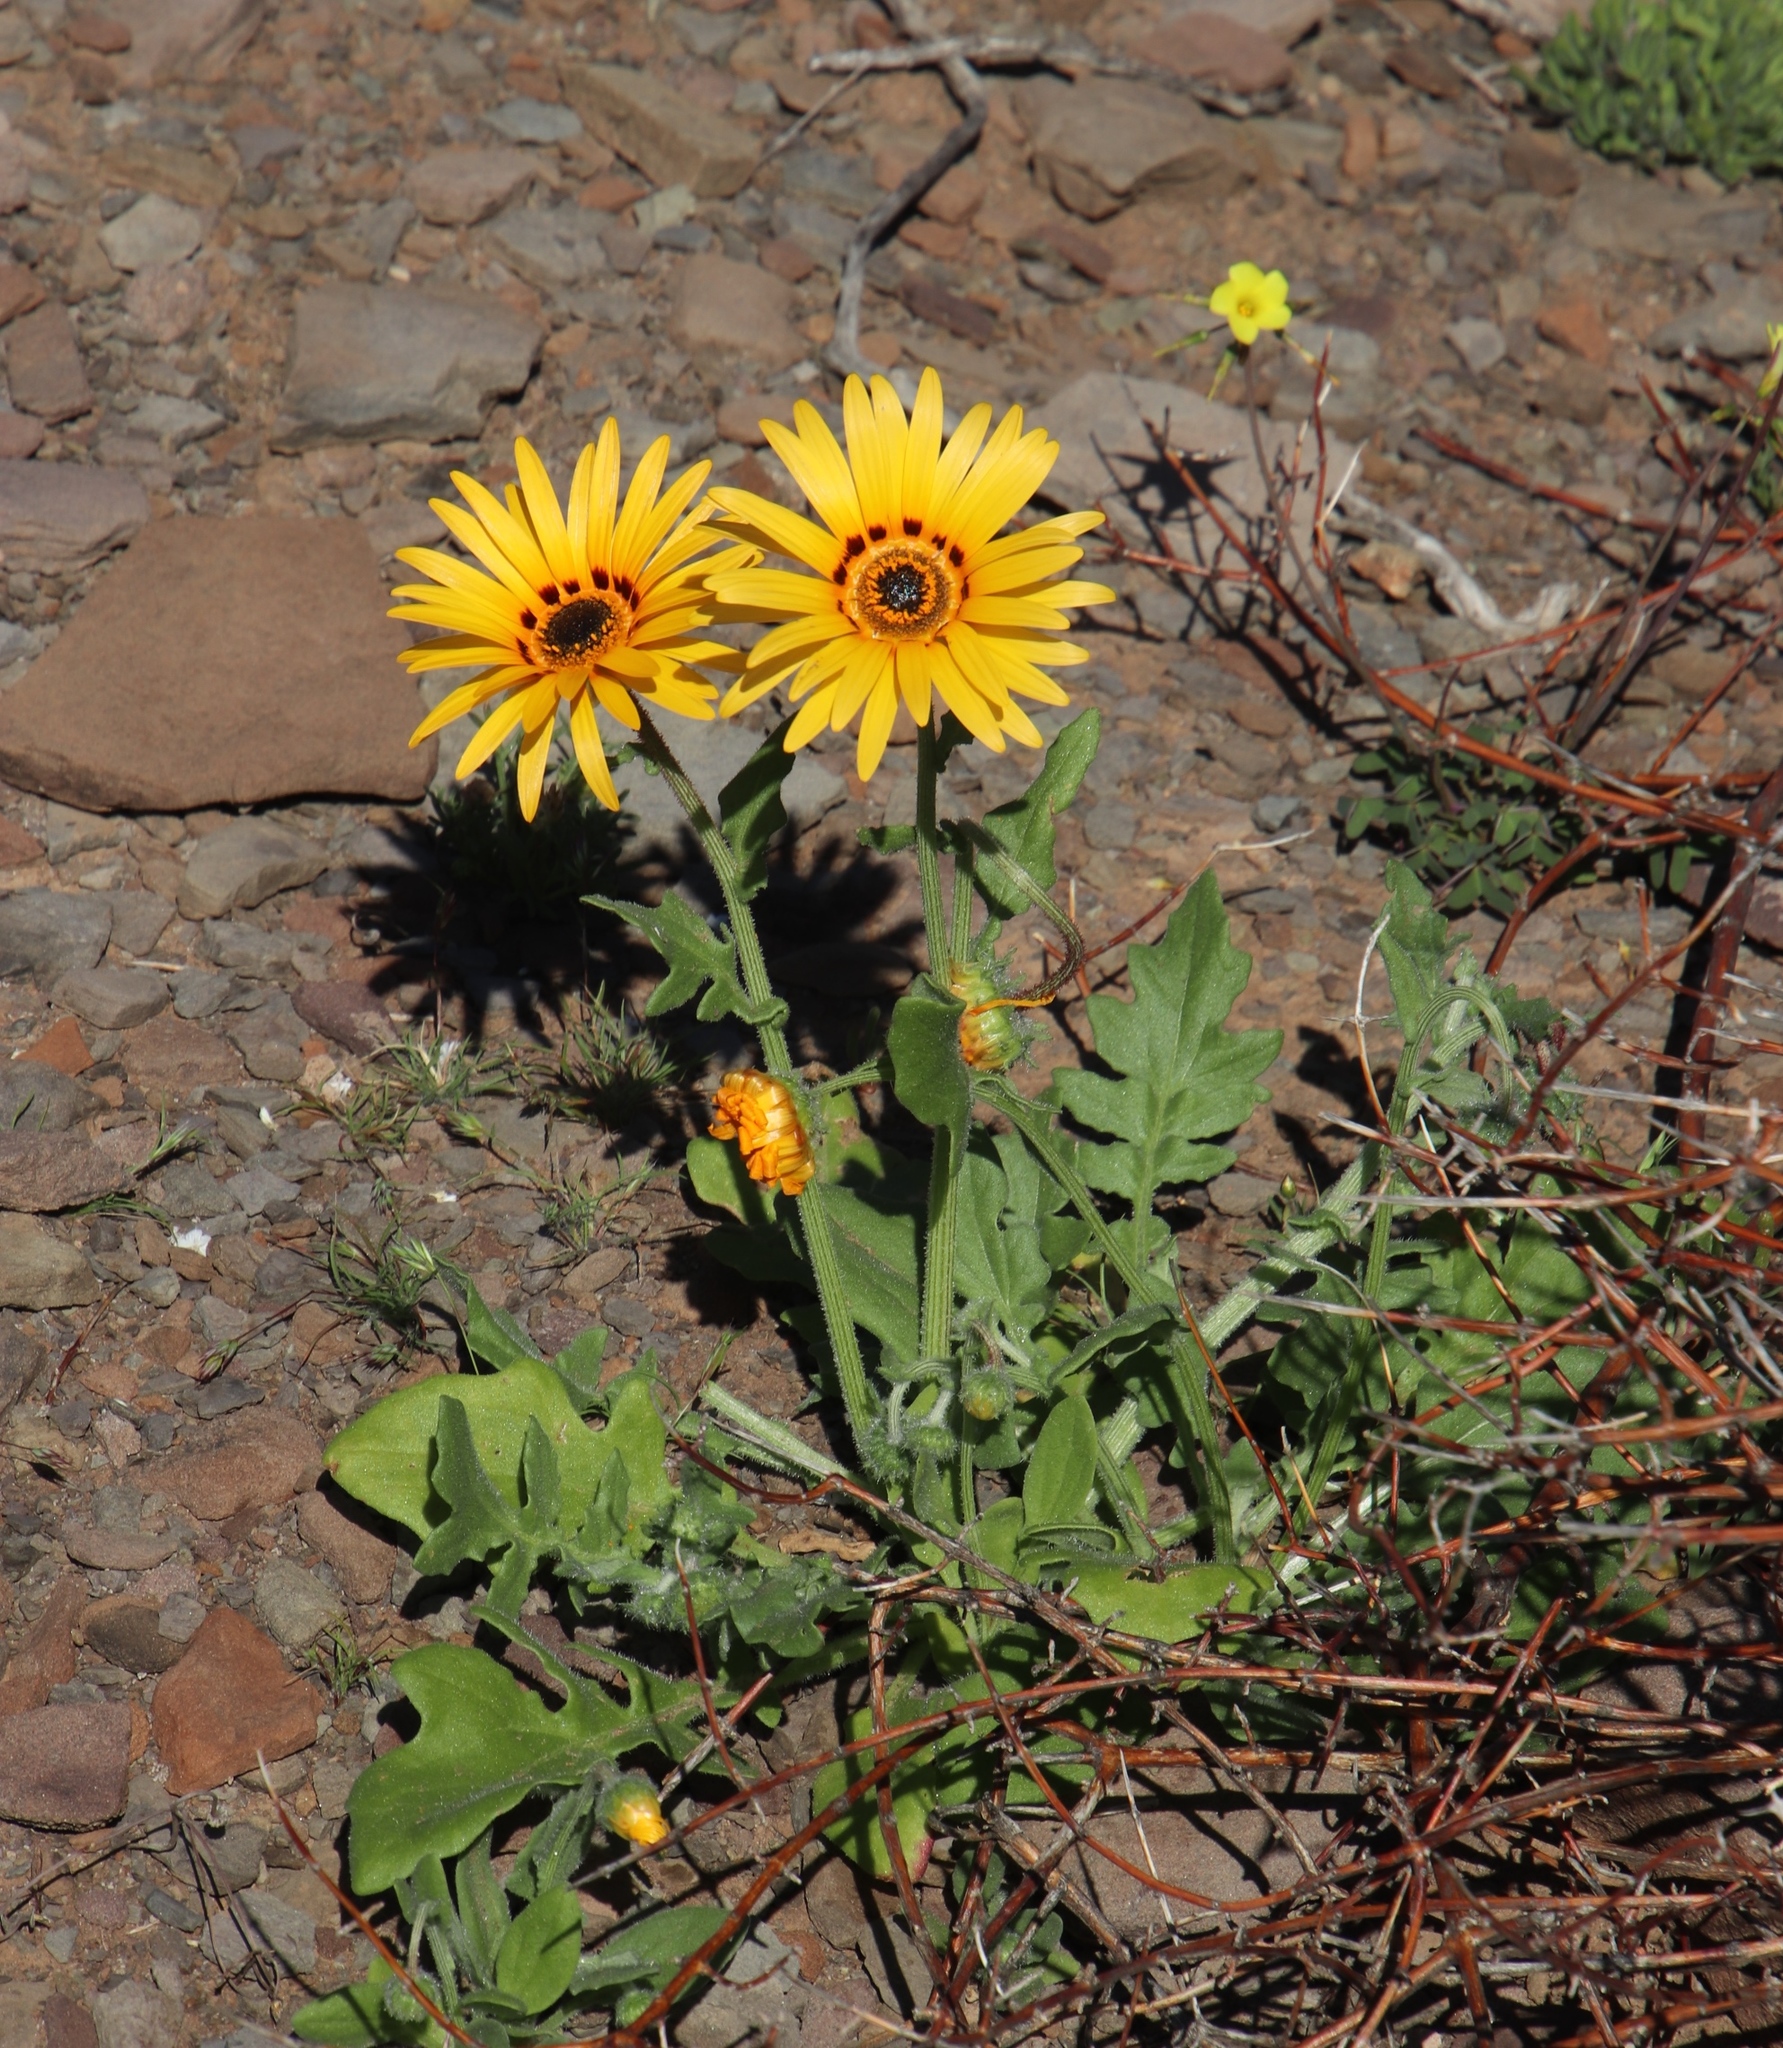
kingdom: Plantae
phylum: Tracheophyta
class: Magnoliopsida
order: Asterales
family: Asteraceae
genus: Arctotis
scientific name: Arctotis hirsuta
